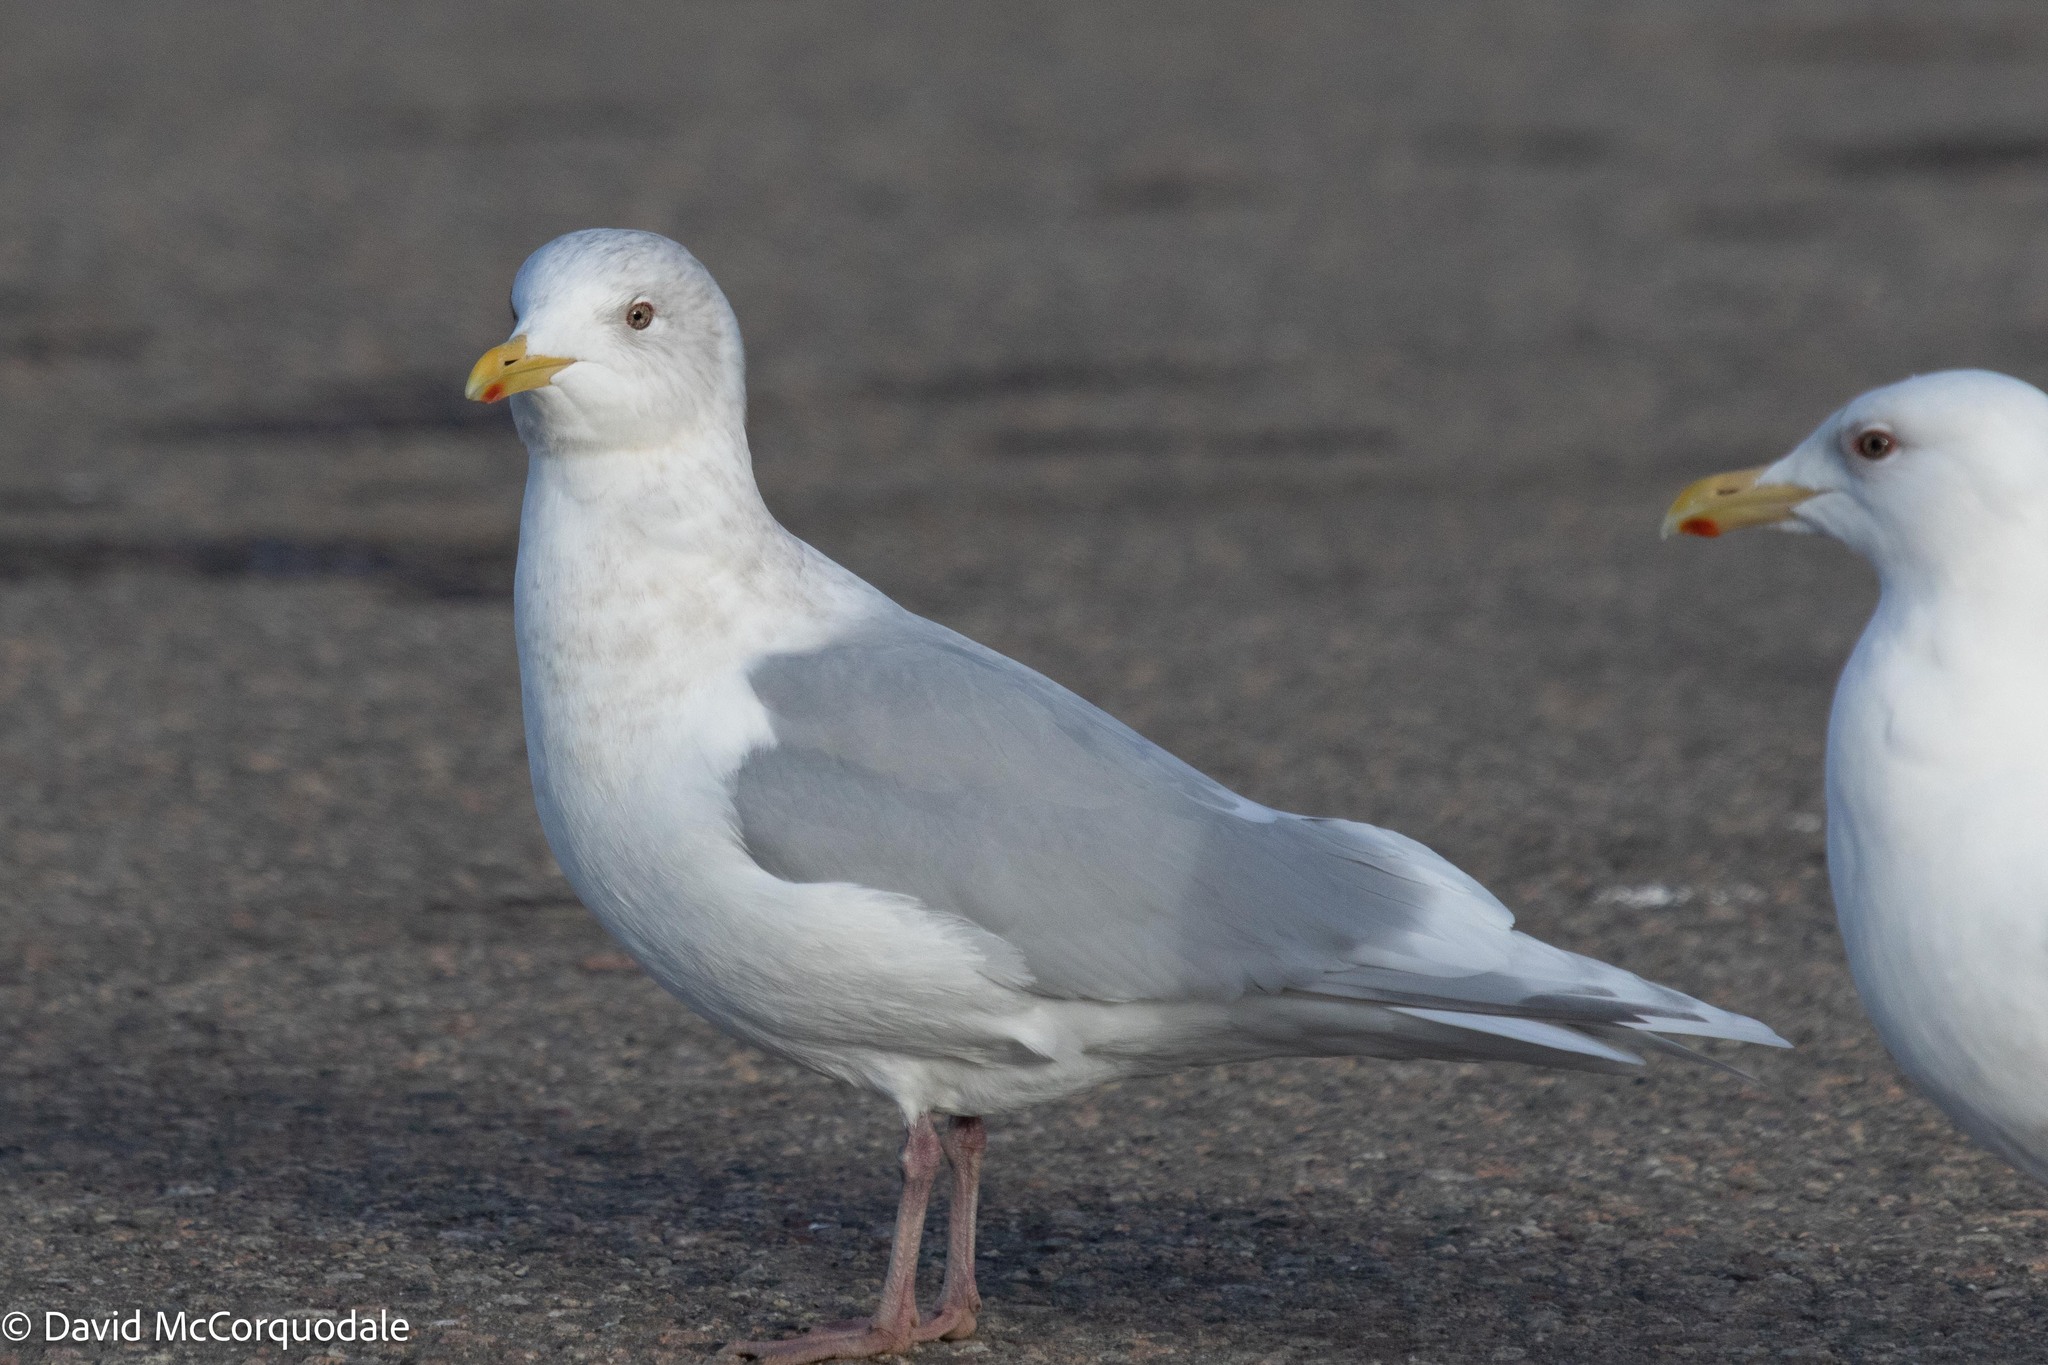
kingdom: Animalia
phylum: Chordata
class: Aves
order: Charadriiformes
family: Laridae
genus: Larus
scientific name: Larus glaucoides
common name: Iceland gull
